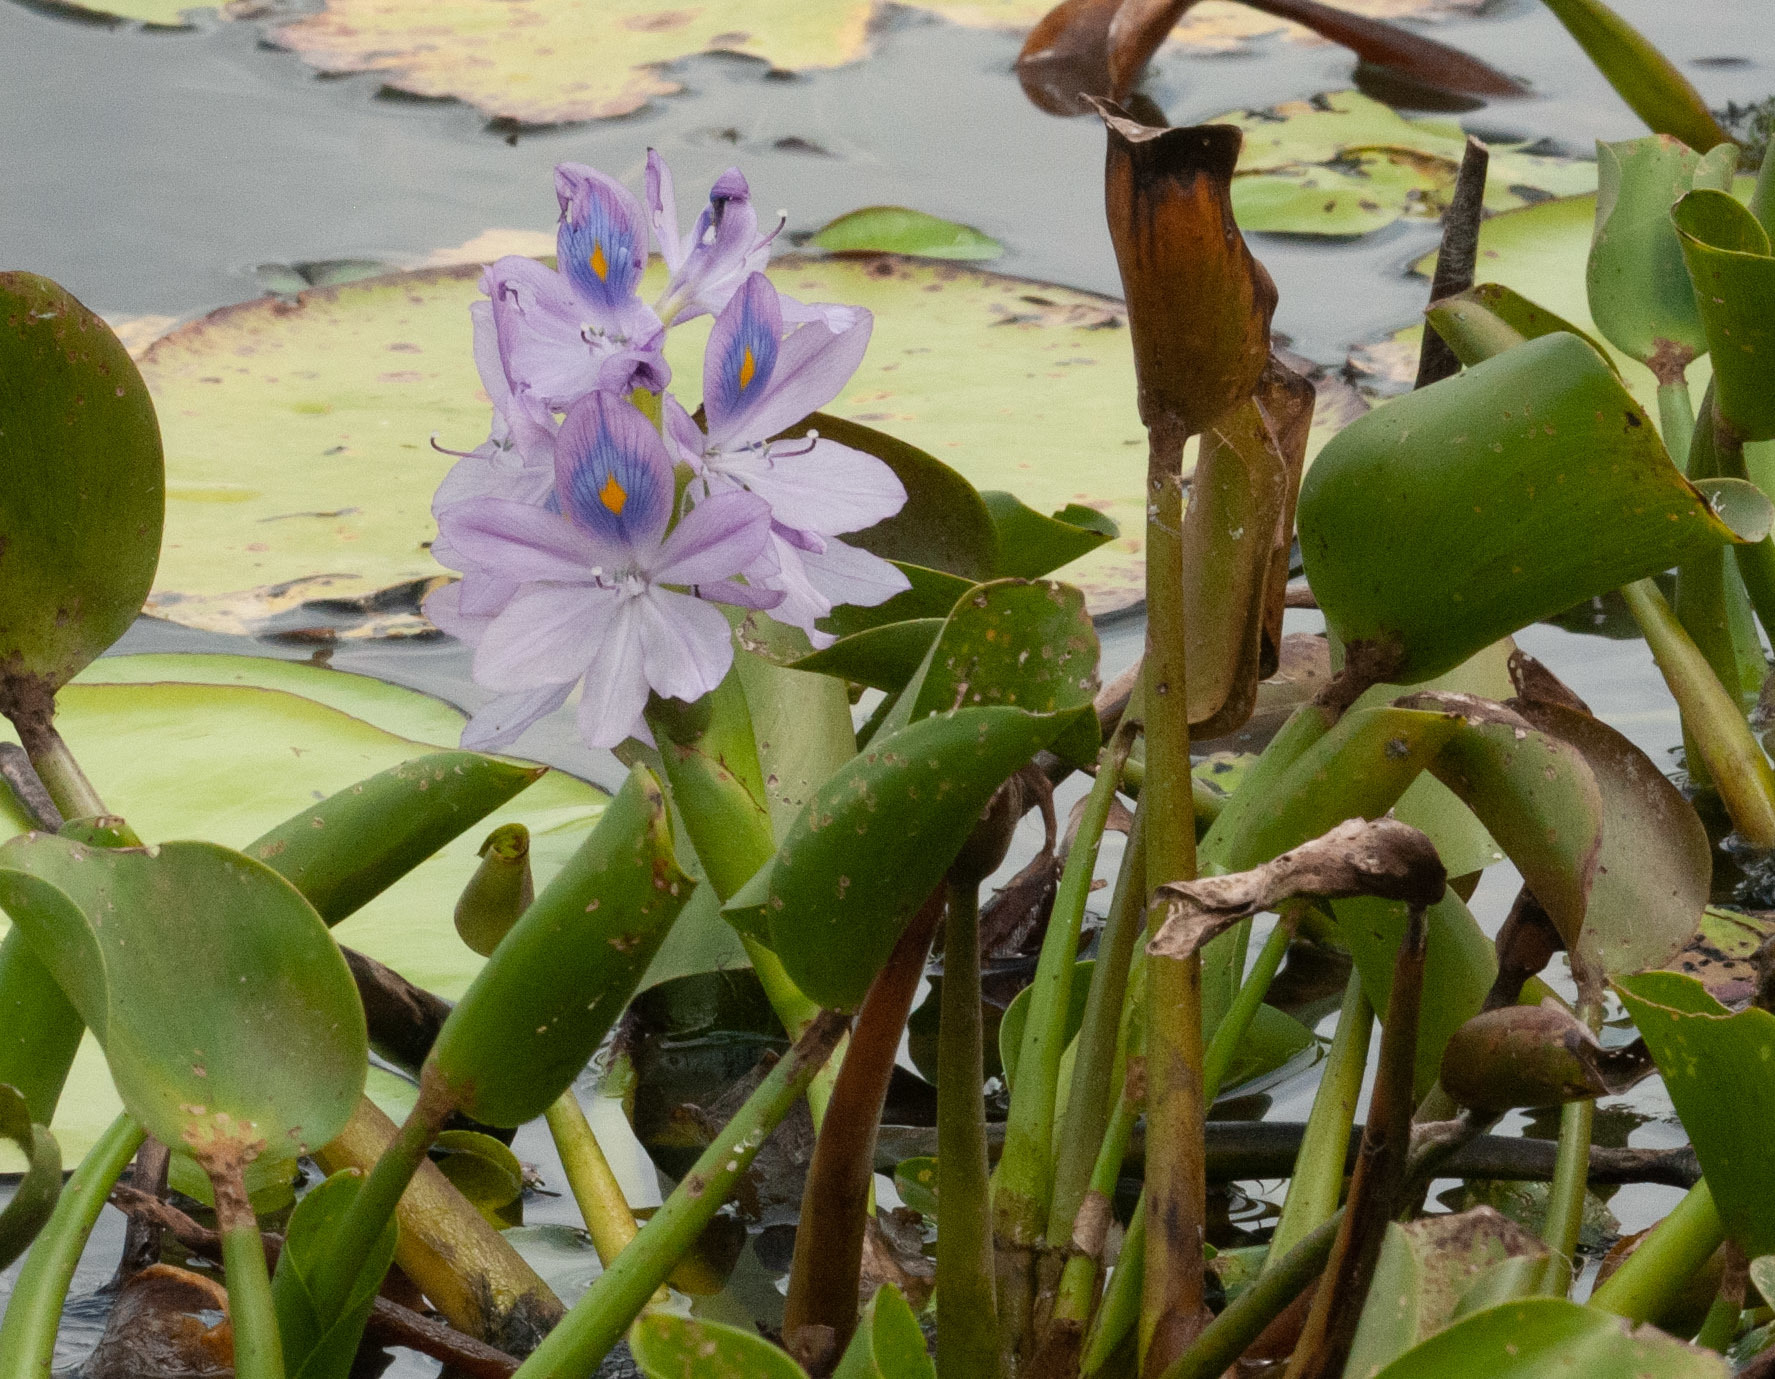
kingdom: Plantae
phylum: Tracheophyta
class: Liliopsida
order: Commelinales
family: Pontederiaceae
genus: Pontederia
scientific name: Pontederia crassipes
